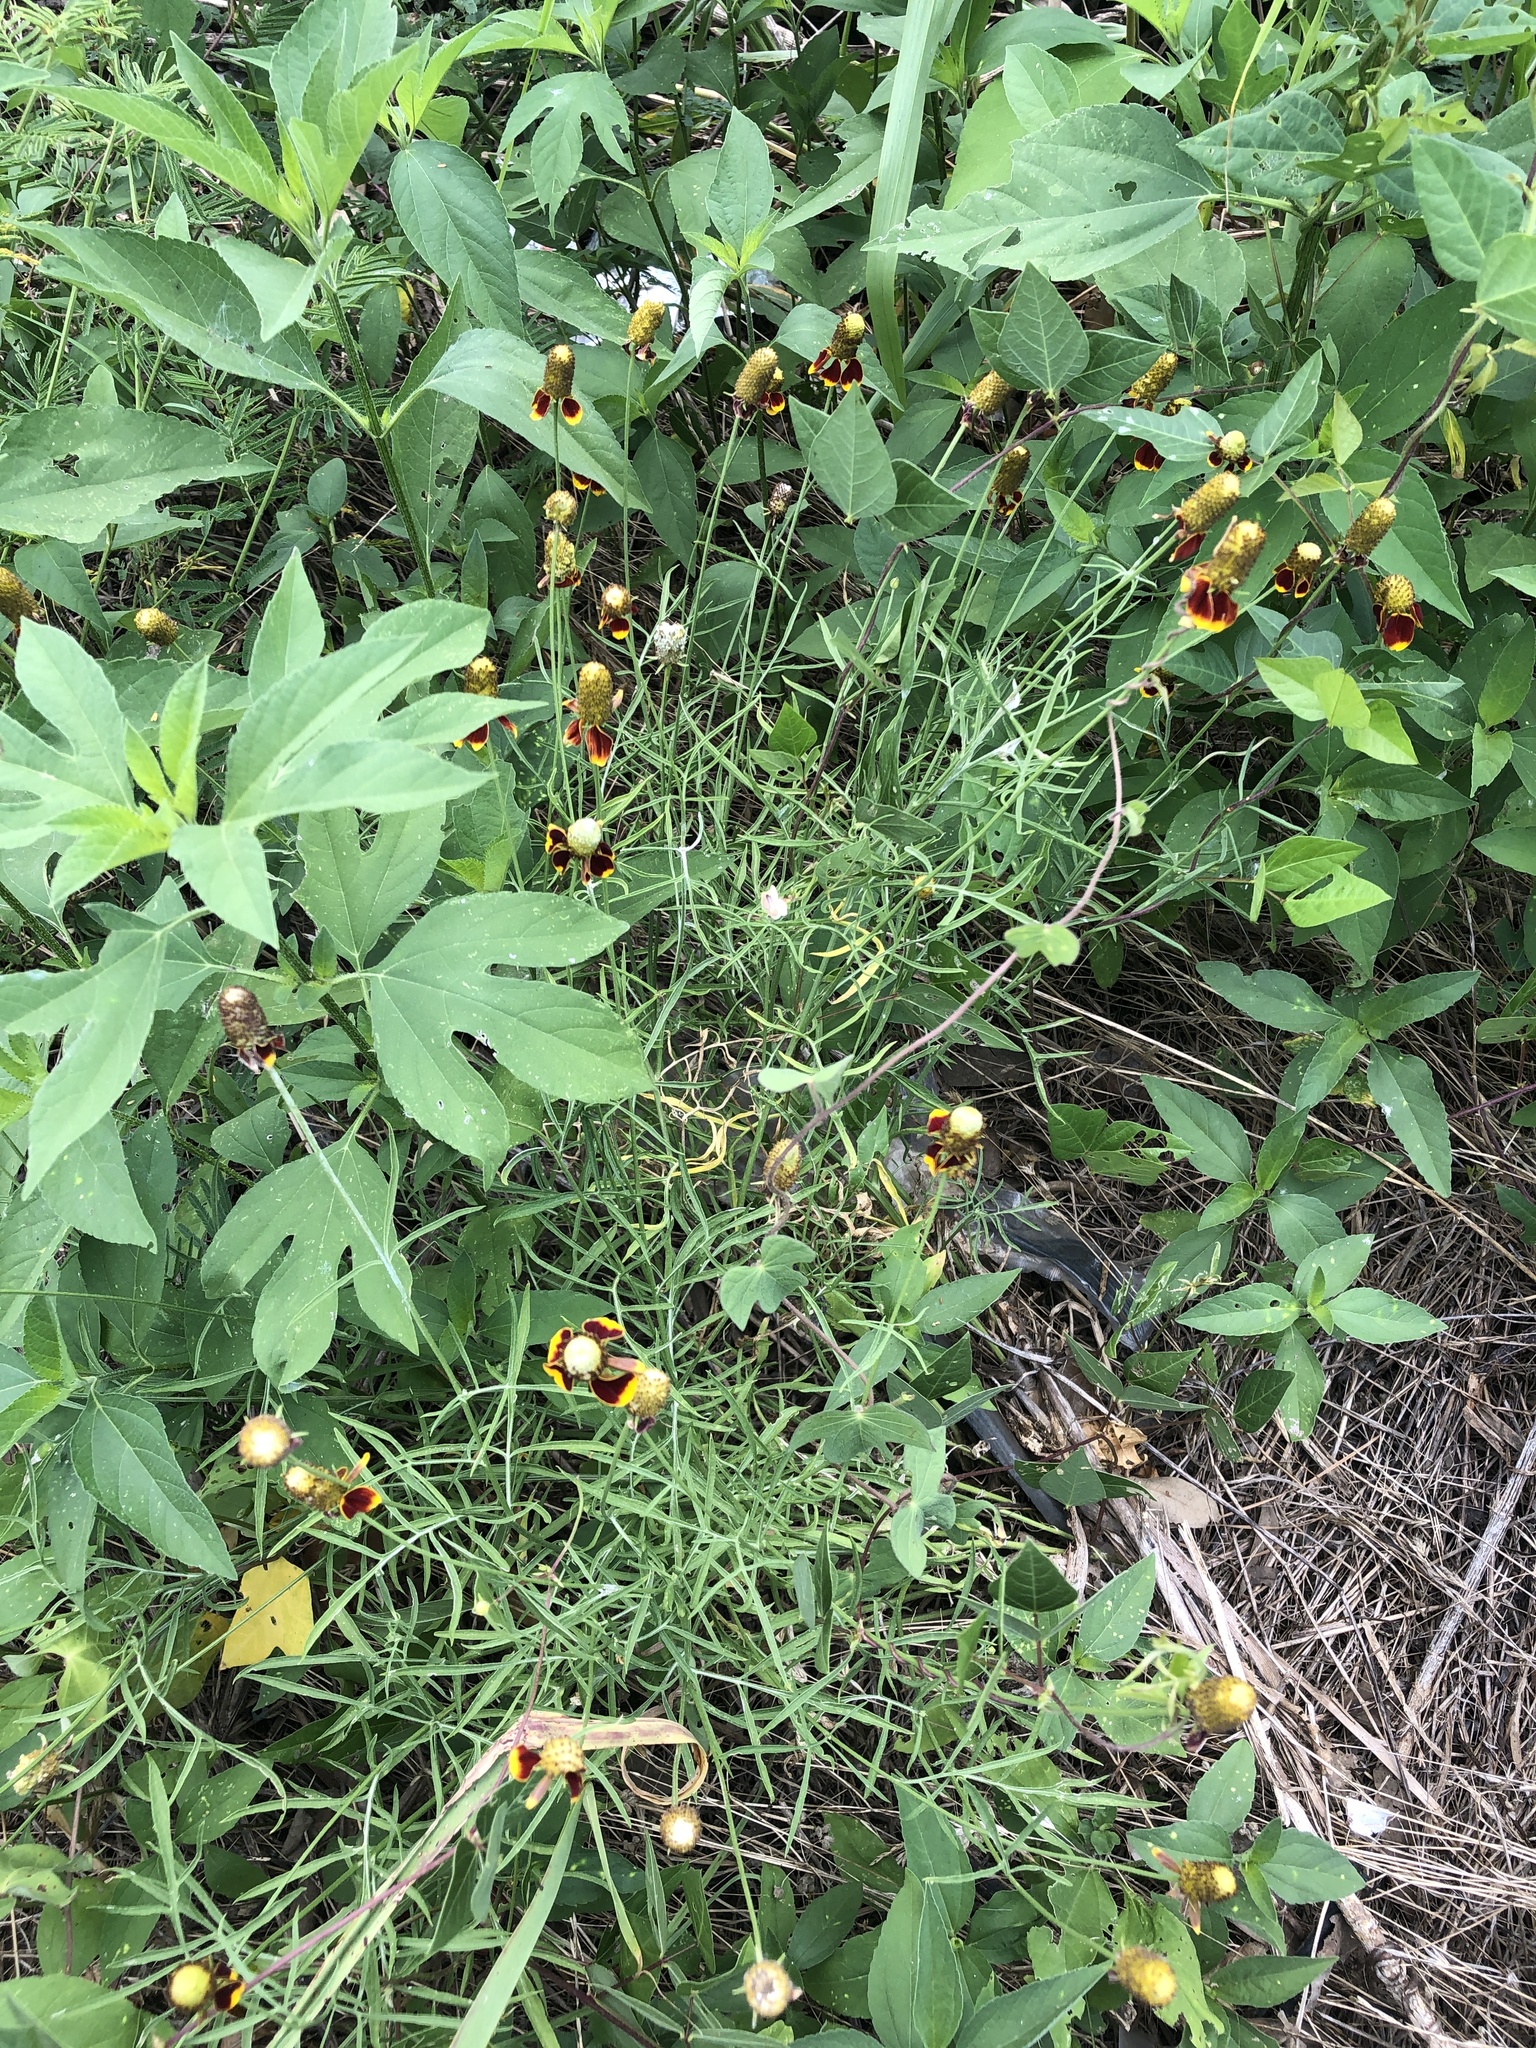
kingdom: Plantae
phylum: Tracheophyta
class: Magnoliopsida
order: Asterales
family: Asteraceae
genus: Ratibida
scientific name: Ratibida columnifera
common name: Prairie coneflower
